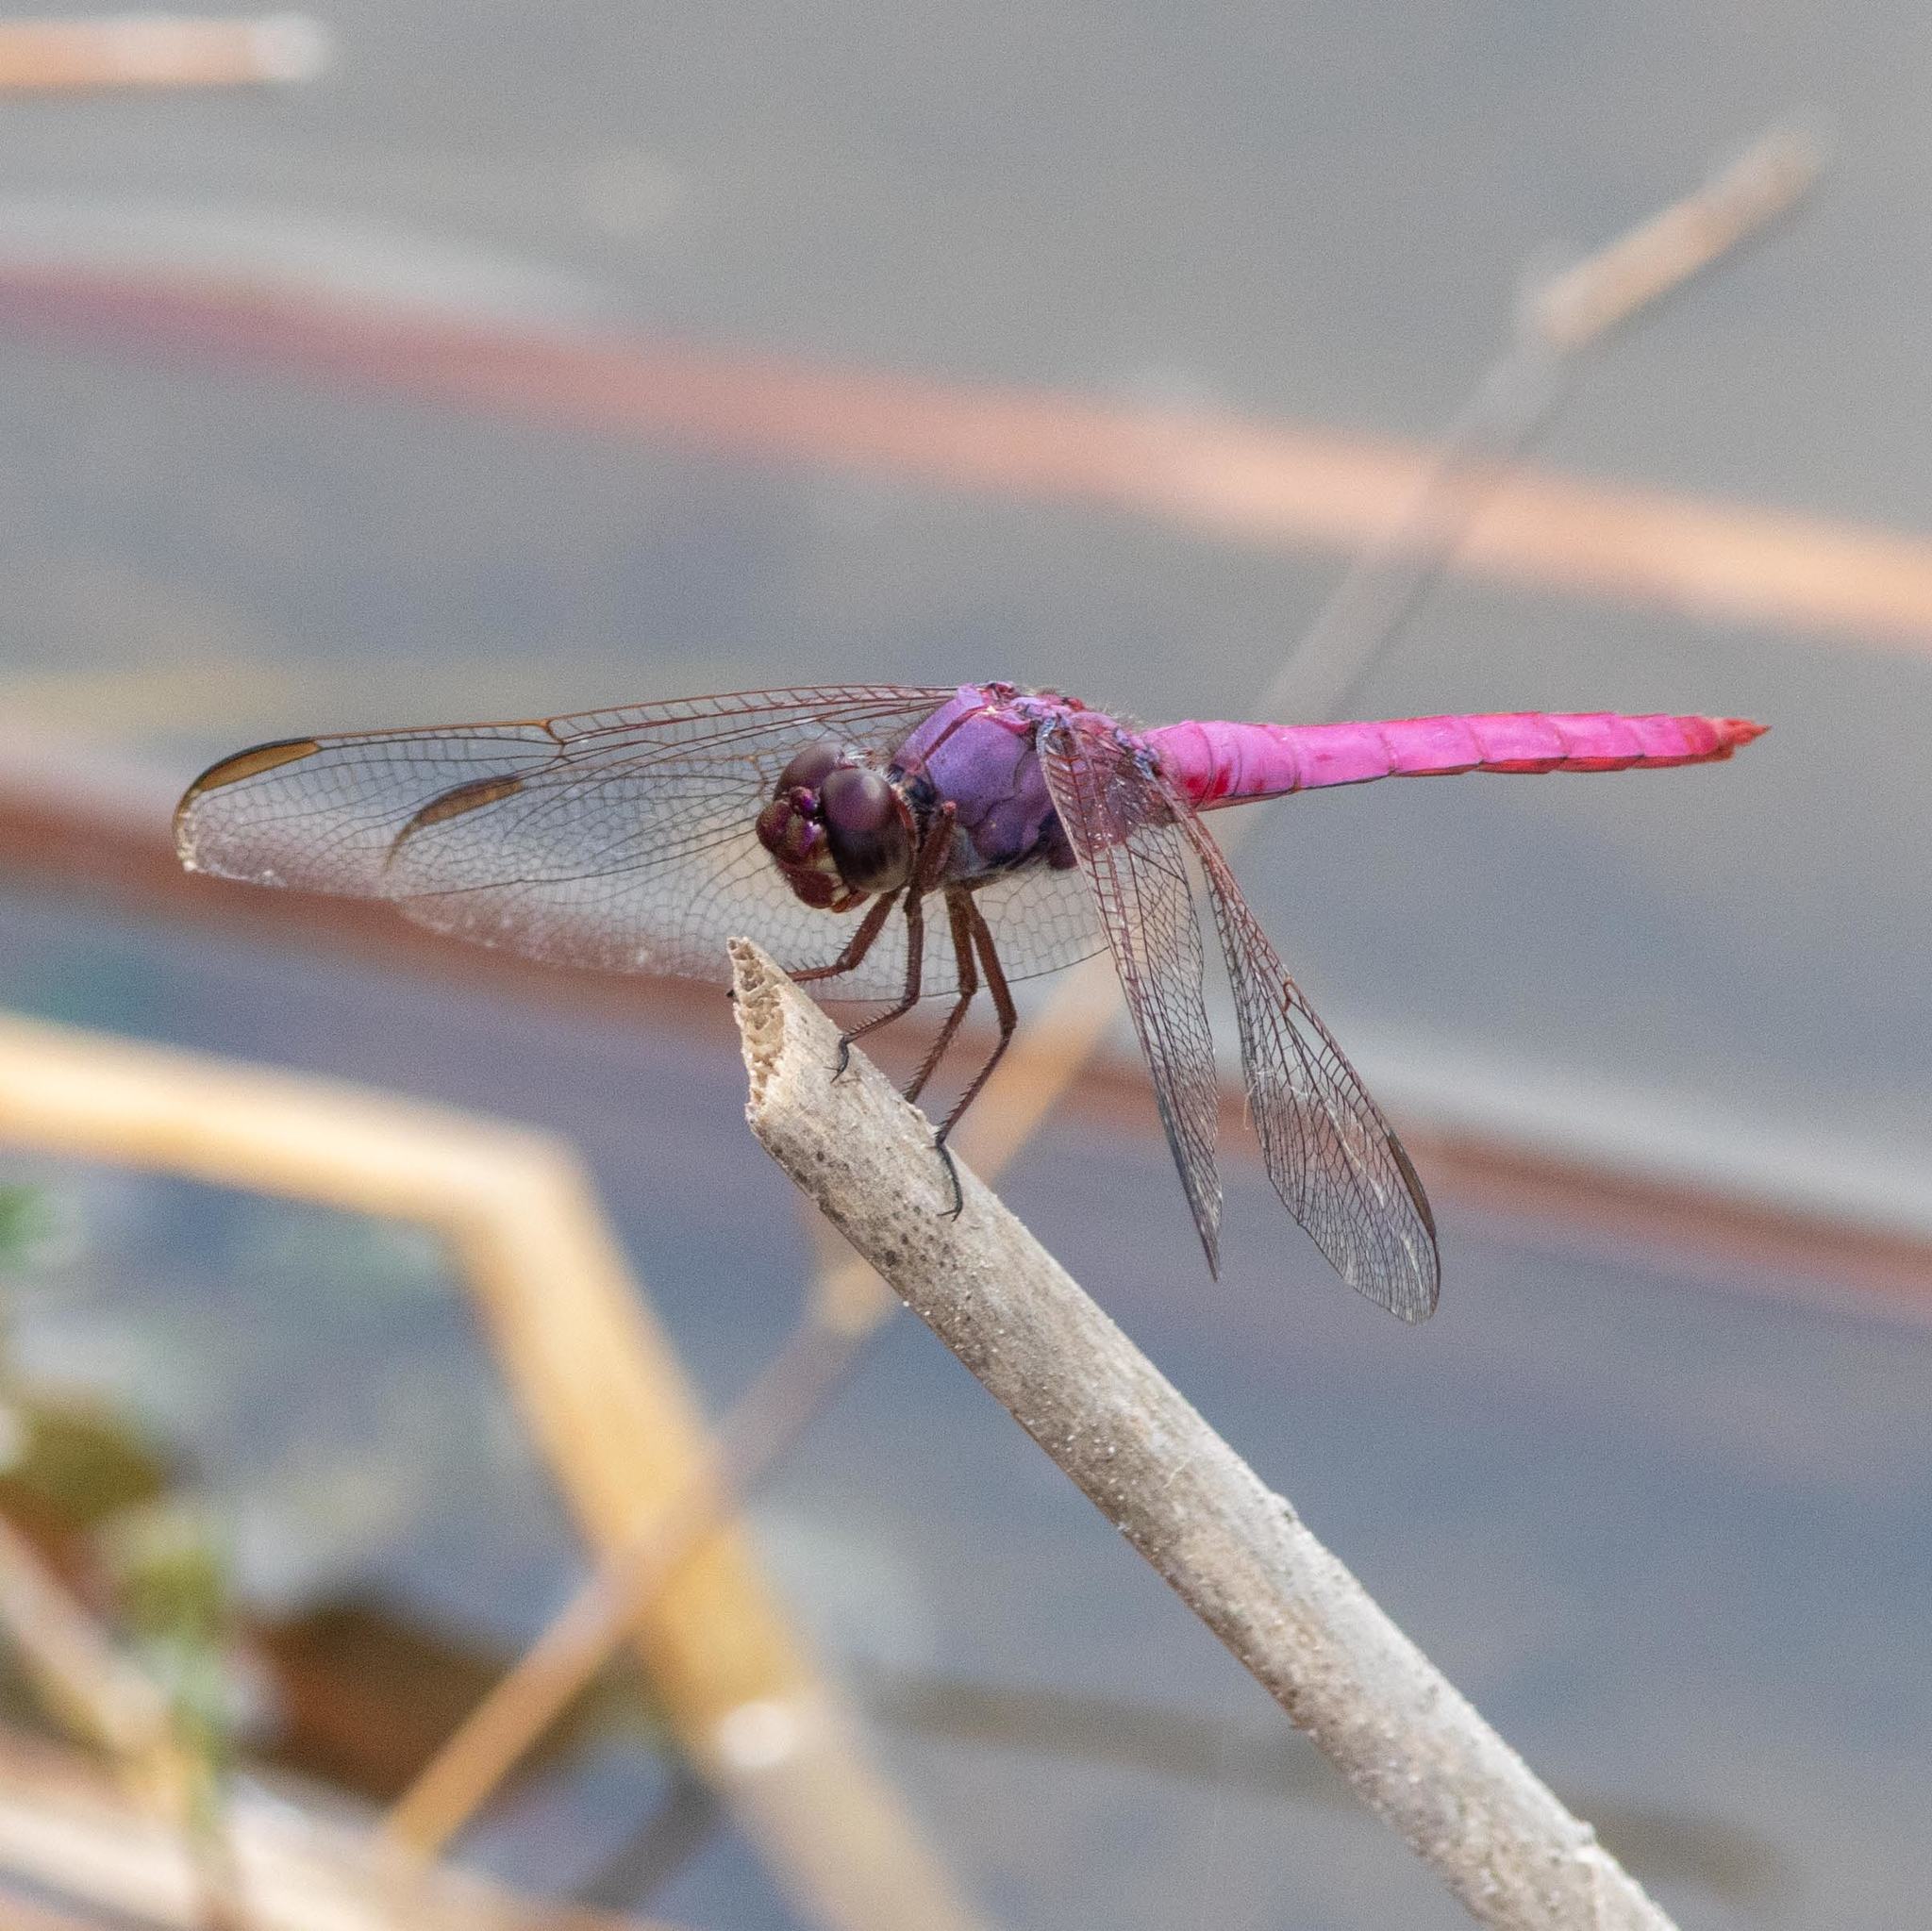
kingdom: Animalia
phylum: Arthropoda
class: Insecta
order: Odonata
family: Libellulidae
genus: Orthemis
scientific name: Orthemis ferruginea
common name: Roseate skimmer
